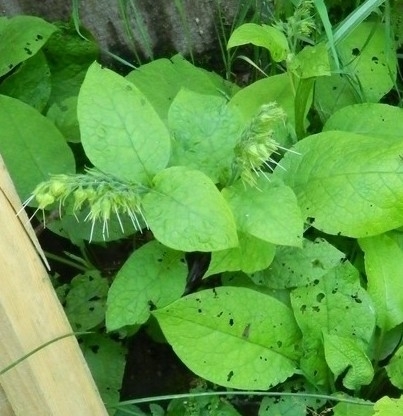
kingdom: Plantae
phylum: Tracheophyta
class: Magnoliopsida
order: Boraginales
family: Boraginaceae
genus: Symphytum
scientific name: Symphytum grandiflorum
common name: Creeping comfrey
